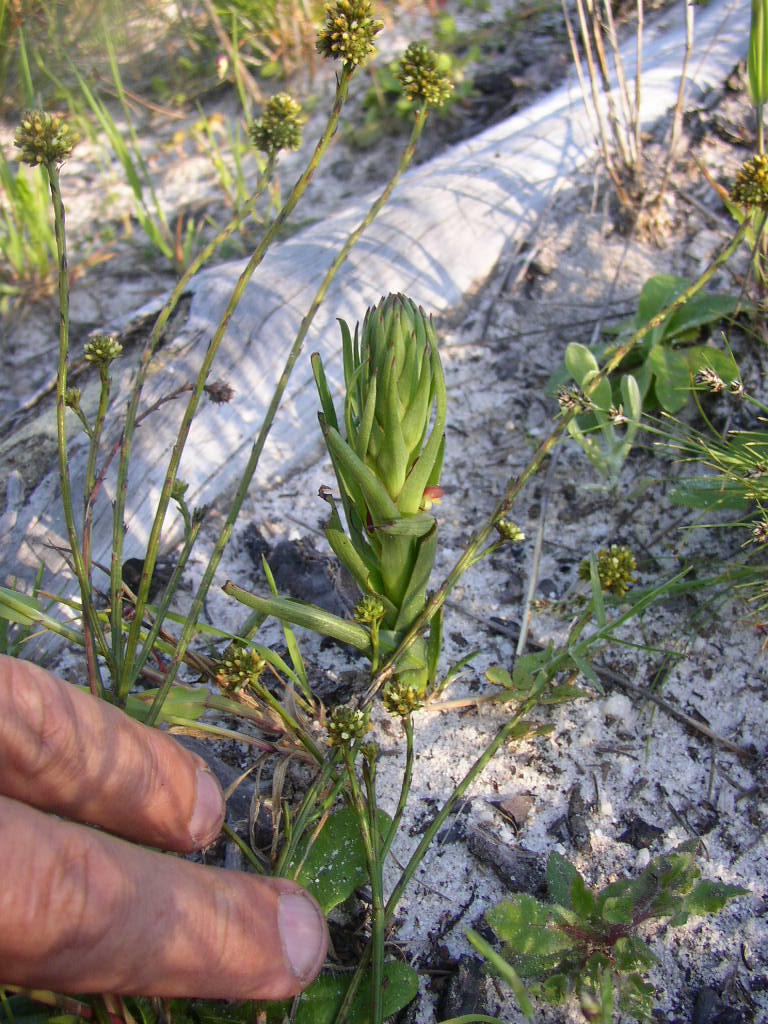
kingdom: Plantae
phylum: Tracheophyta
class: Liliopsida
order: Asparagales
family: Orchidaceae
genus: Disa
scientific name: Disa bracteata
